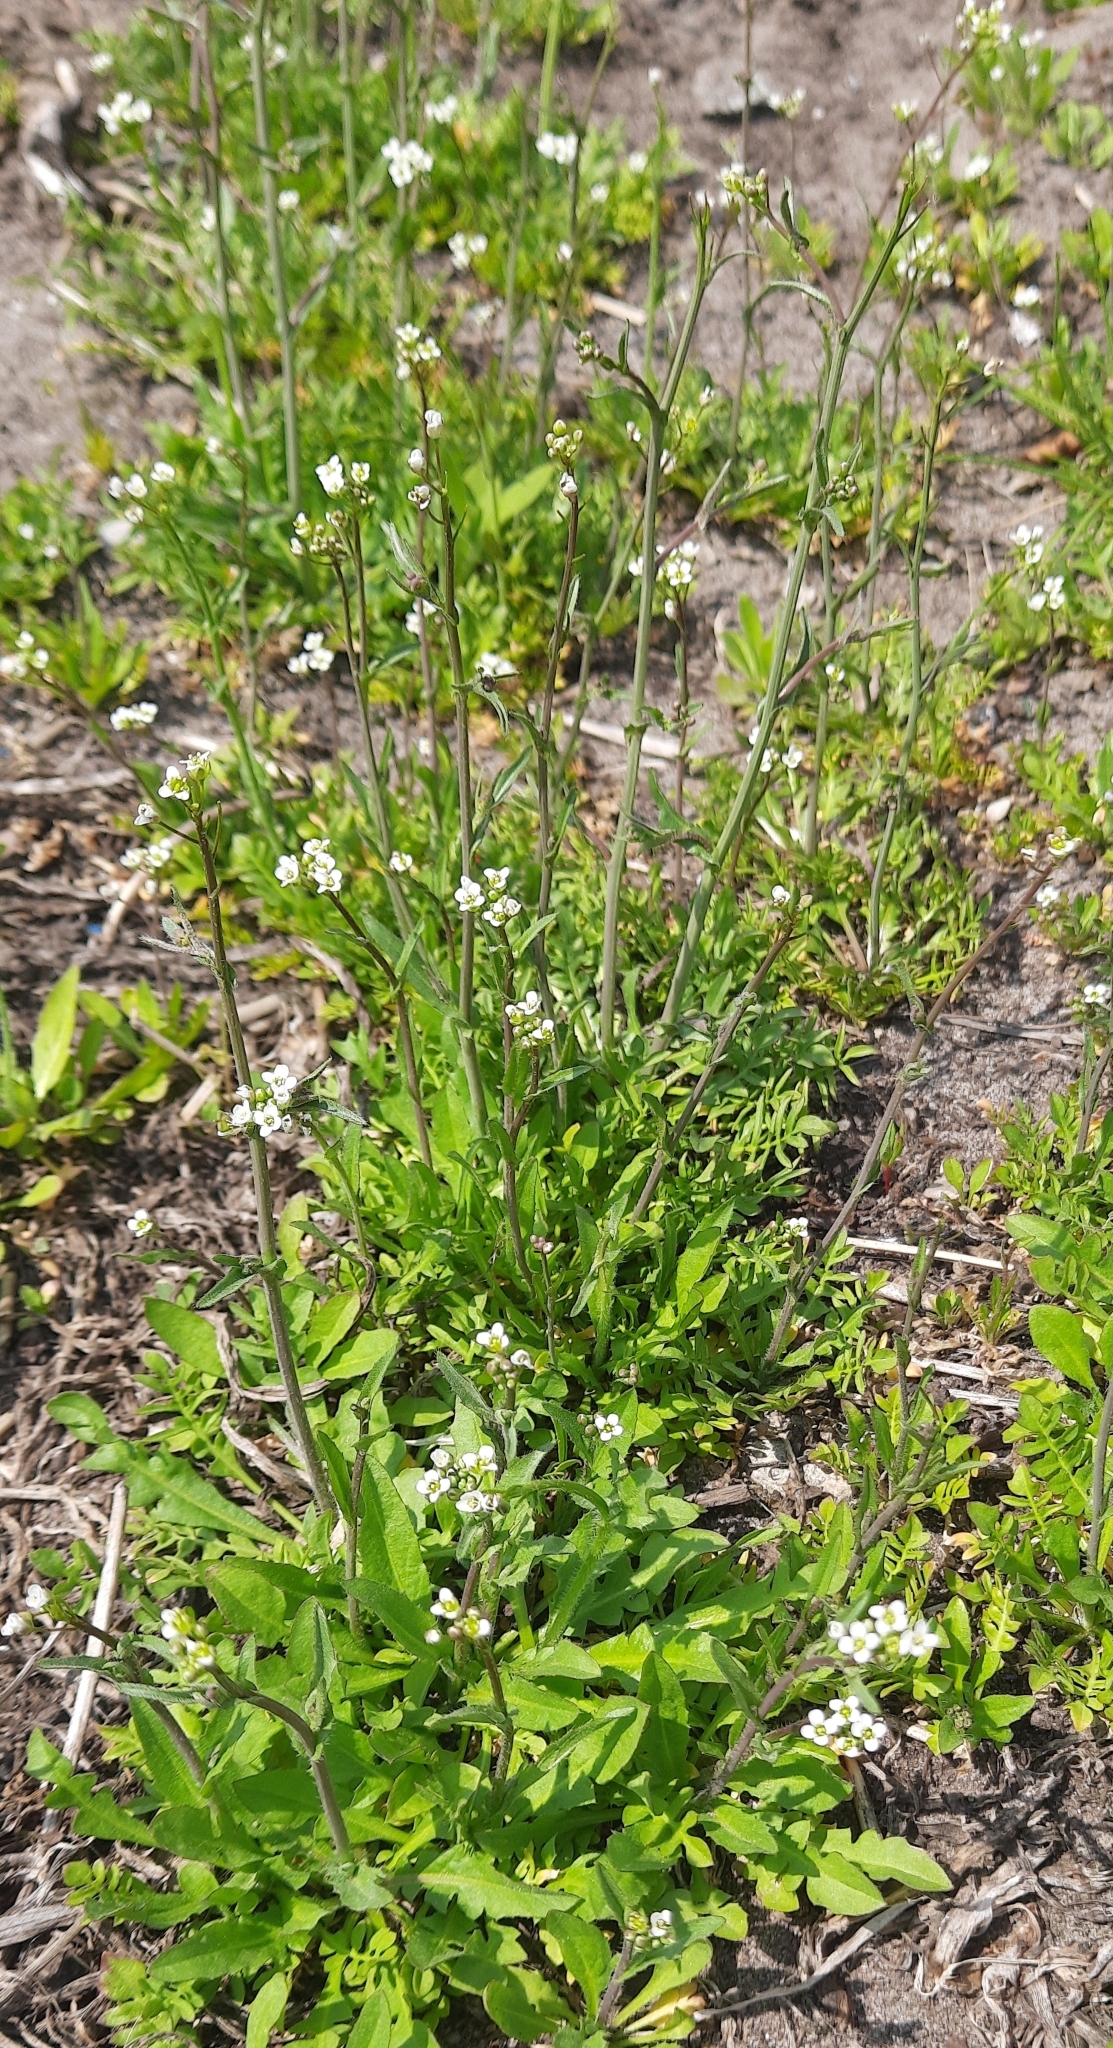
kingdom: Plantae
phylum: Tracheophyta
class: Magnoliopsida
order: Brassicales
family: Brassicaceae
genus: Capsella
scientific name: Capsella bursa-pastoris
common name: Shepherd's purse
